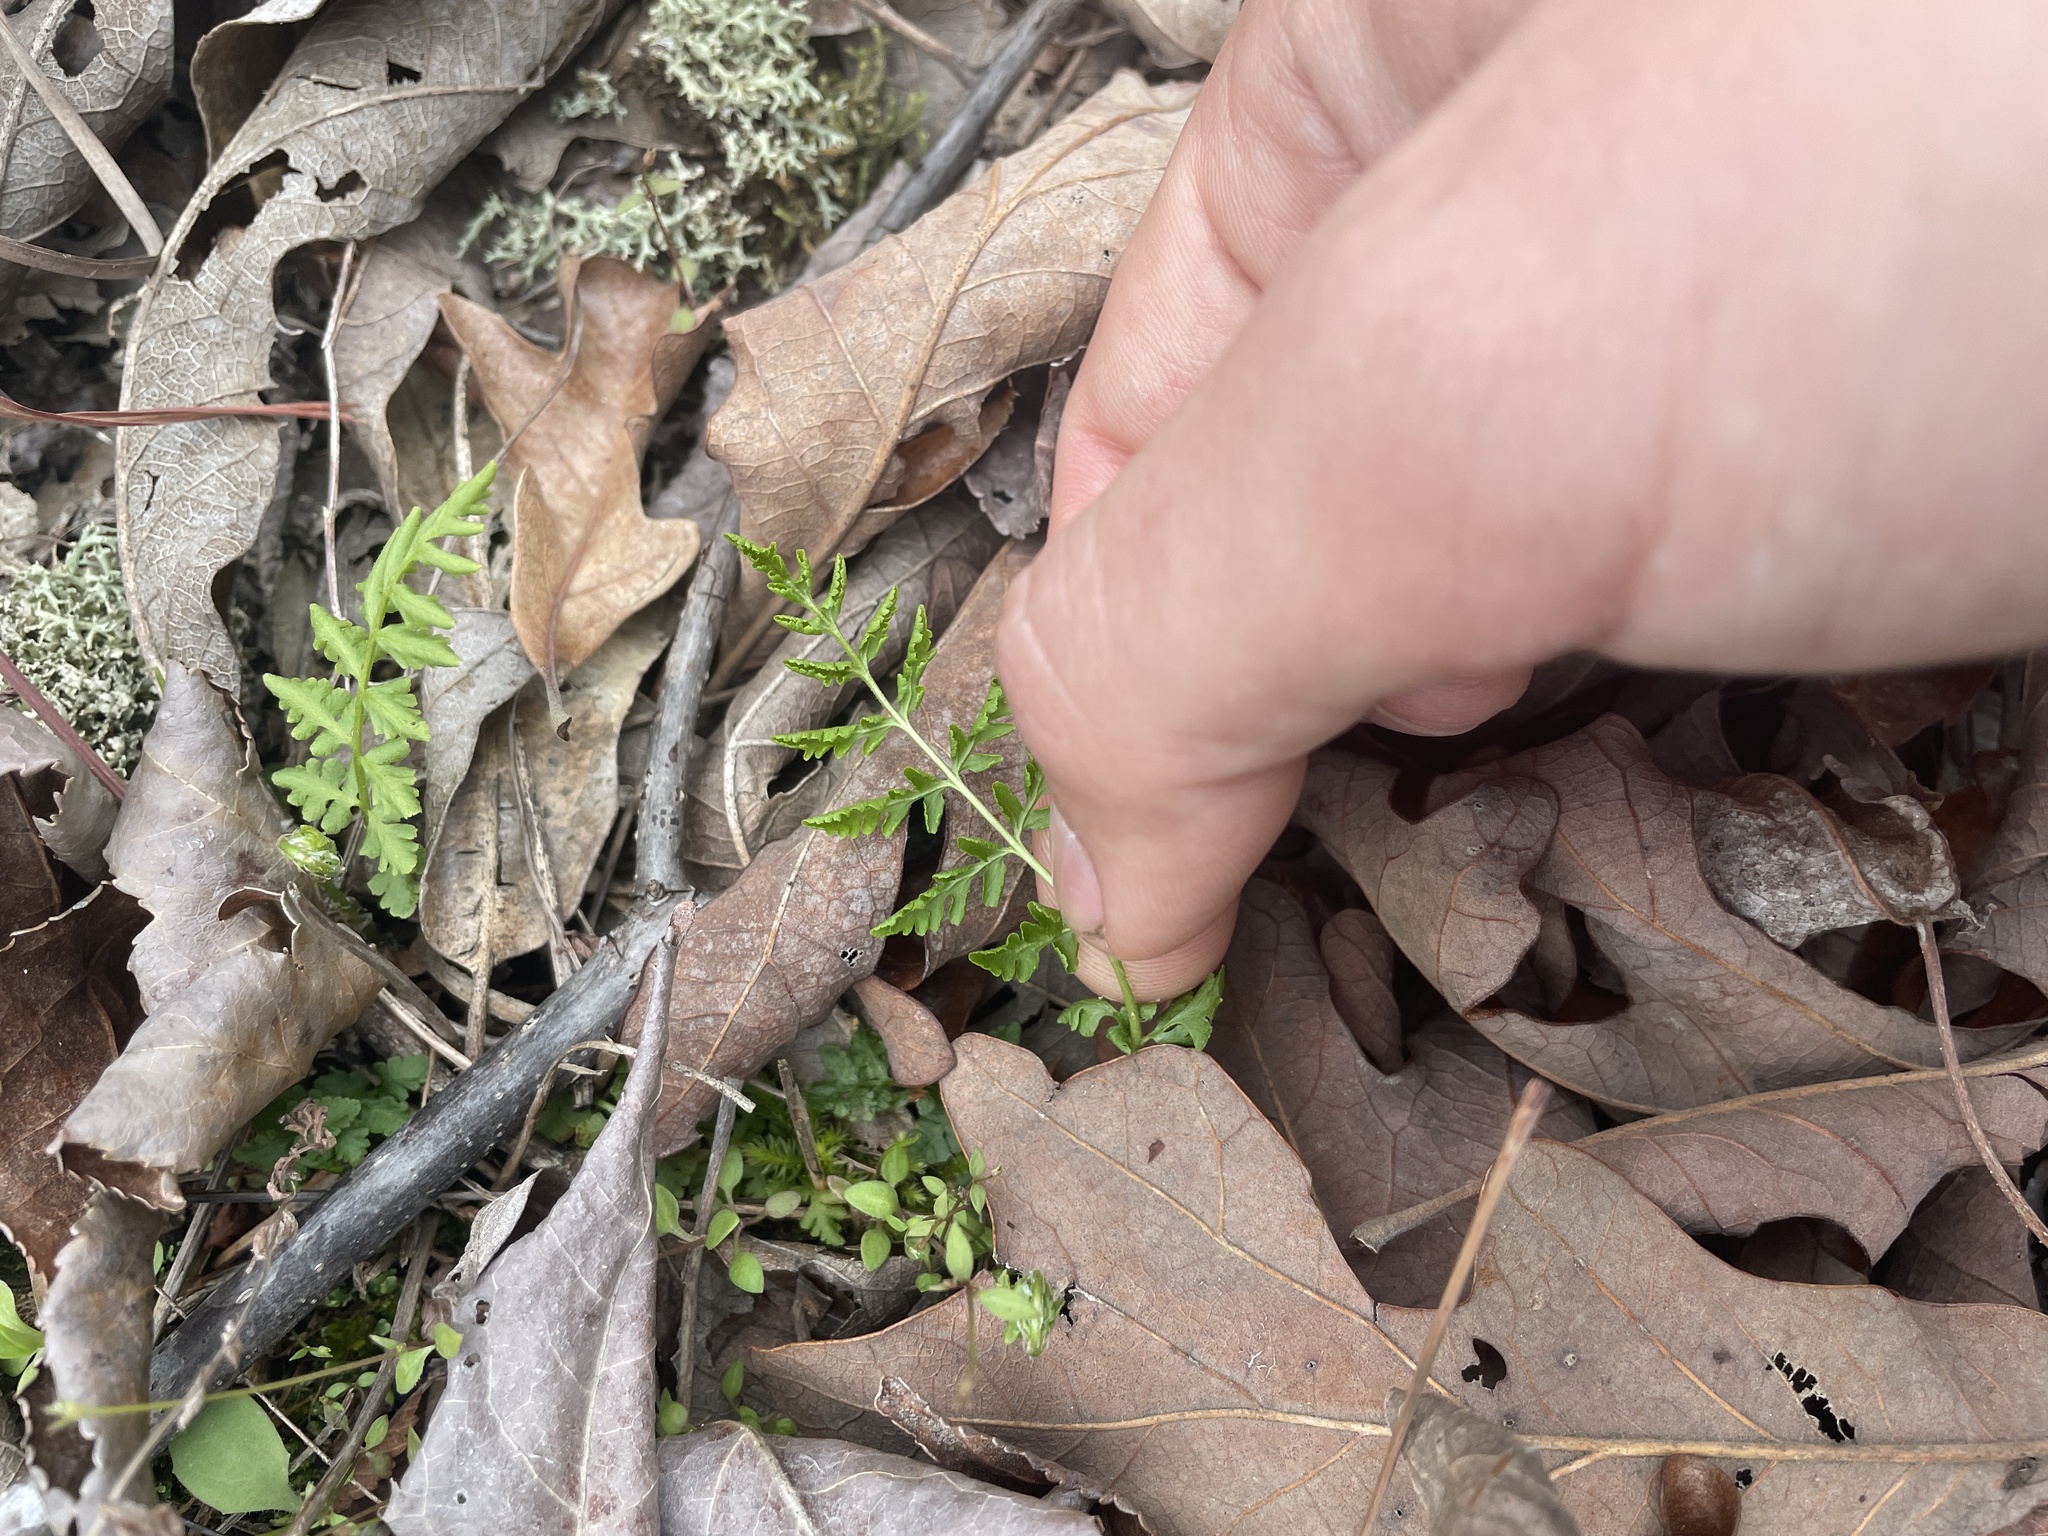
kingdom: Plantae
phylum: Tracheophyta
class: Polypodiopsida
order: Polypodiales
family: Woodsiaceae
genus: Physematium
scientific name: Physematium obtusum
